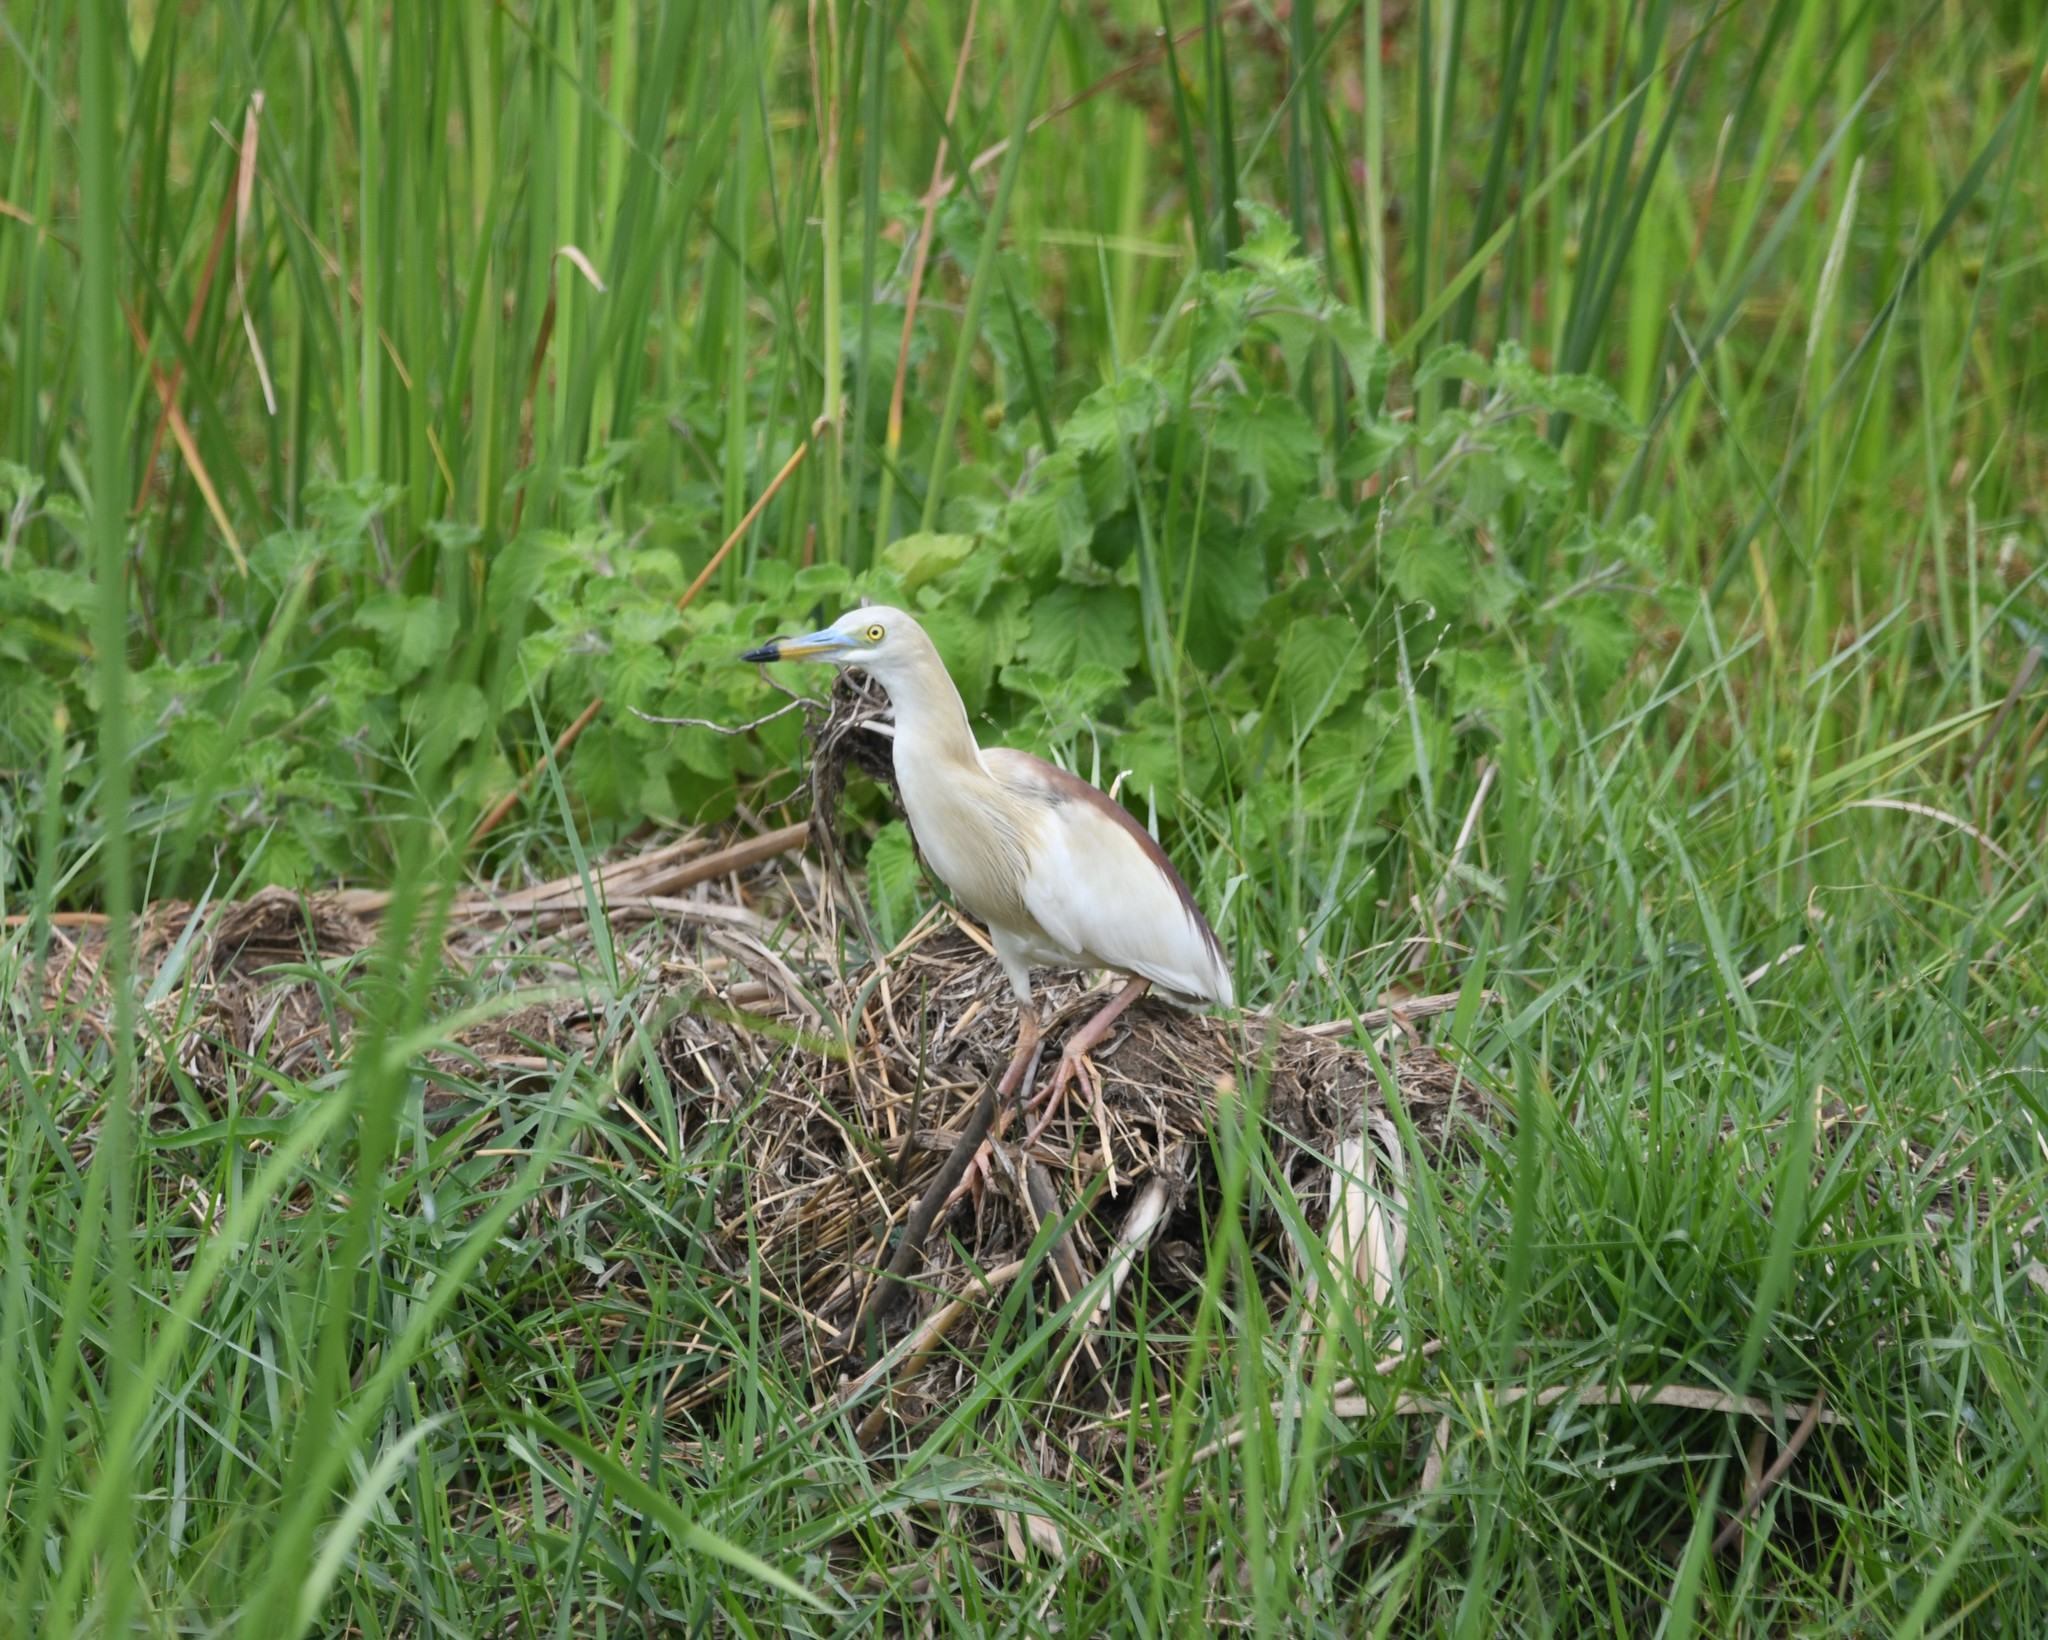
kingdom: Animalia
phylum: Chordata
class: Aves
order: Pelecaniformes
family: Ardeidae
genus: Ardeola
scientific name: Ardeola grayii
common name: Indian pond heron
